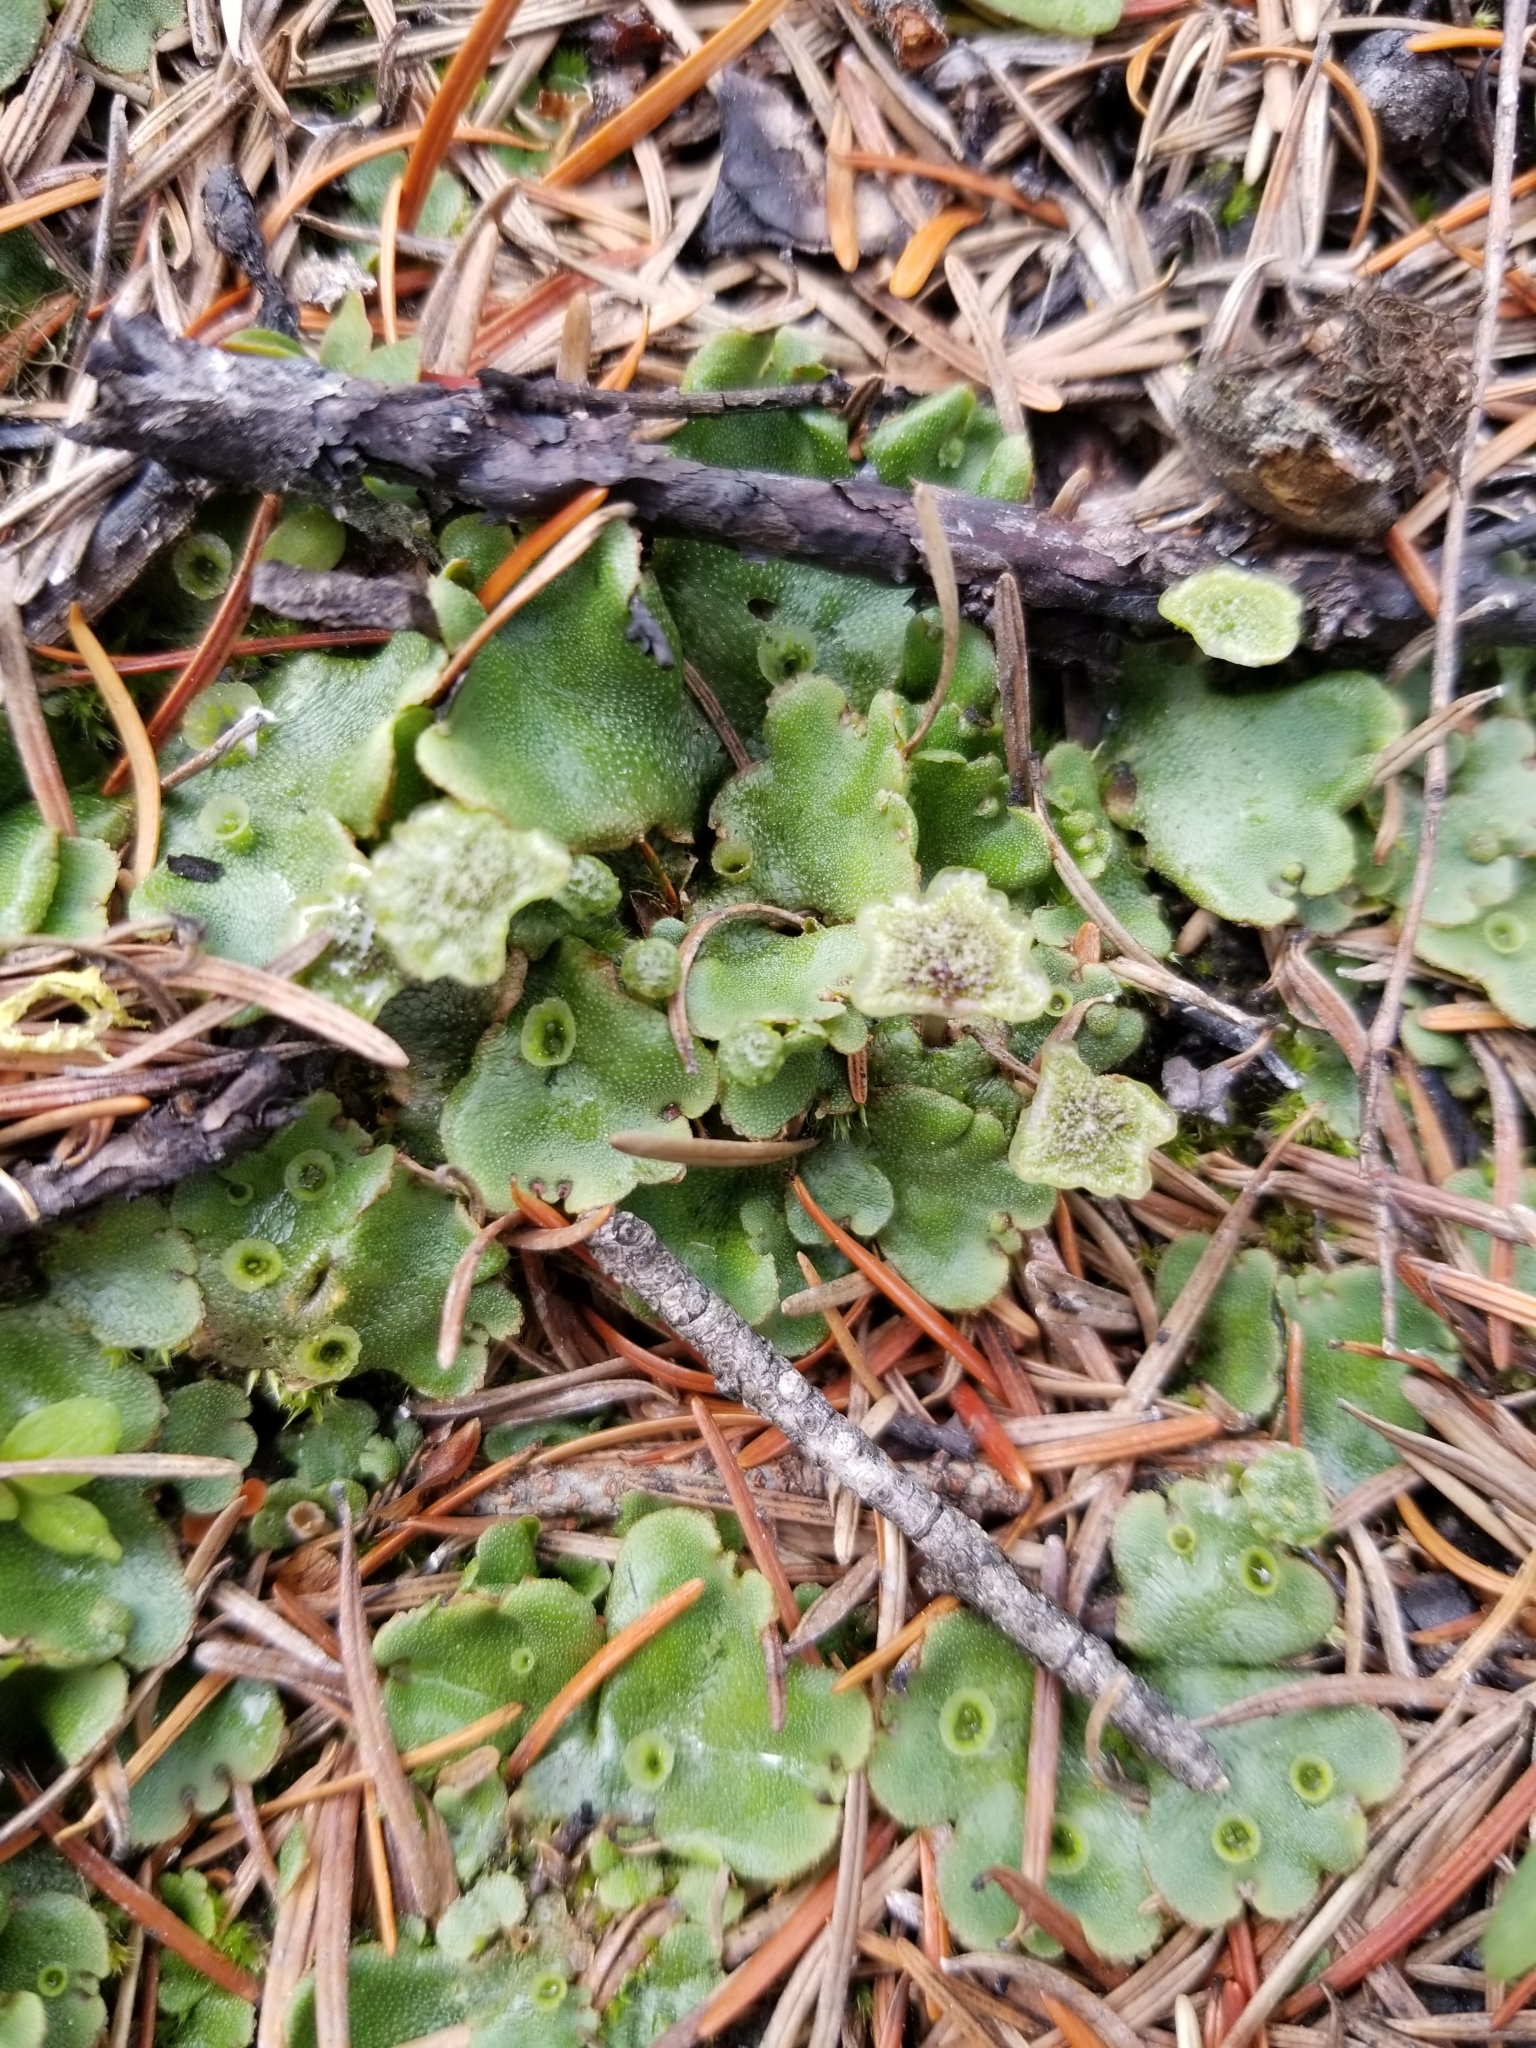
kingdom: Plantae
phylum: Marchantiophyta
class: Marchantiopsida
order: Marchantiales
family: Marchantiaceae
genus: Marchantia
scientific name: Marchantia polymorpha
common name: Common liverwort
